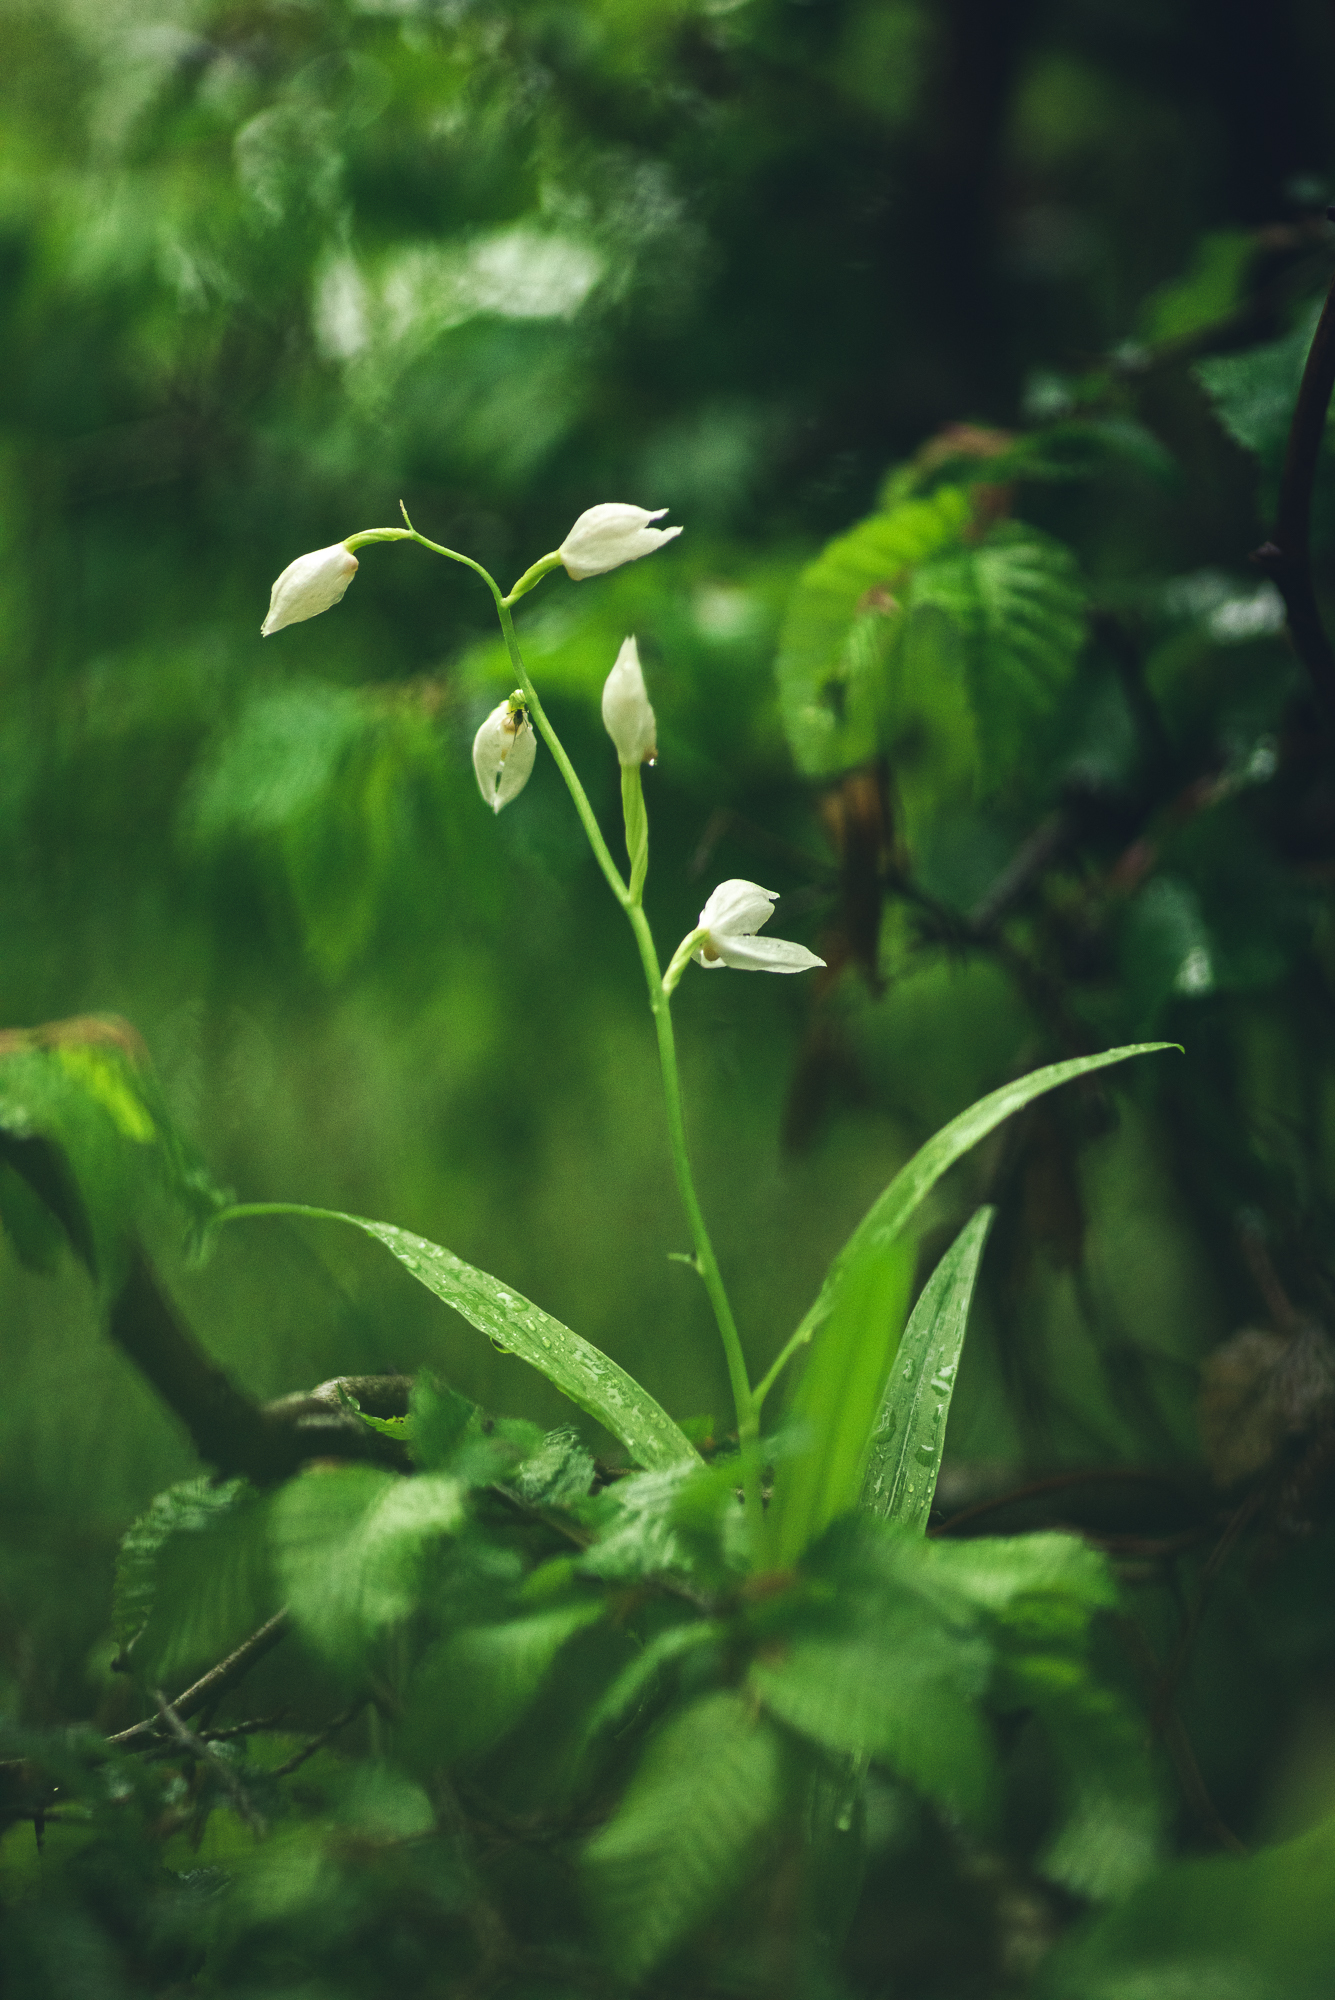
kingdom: Plantae
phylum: Tracheophyta
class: Liliopsida
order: Asparagales
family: Orchidaceae
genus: Cephalanthera
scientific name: Cephalanthera longifolia
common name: Narrow-leaved helleborine
